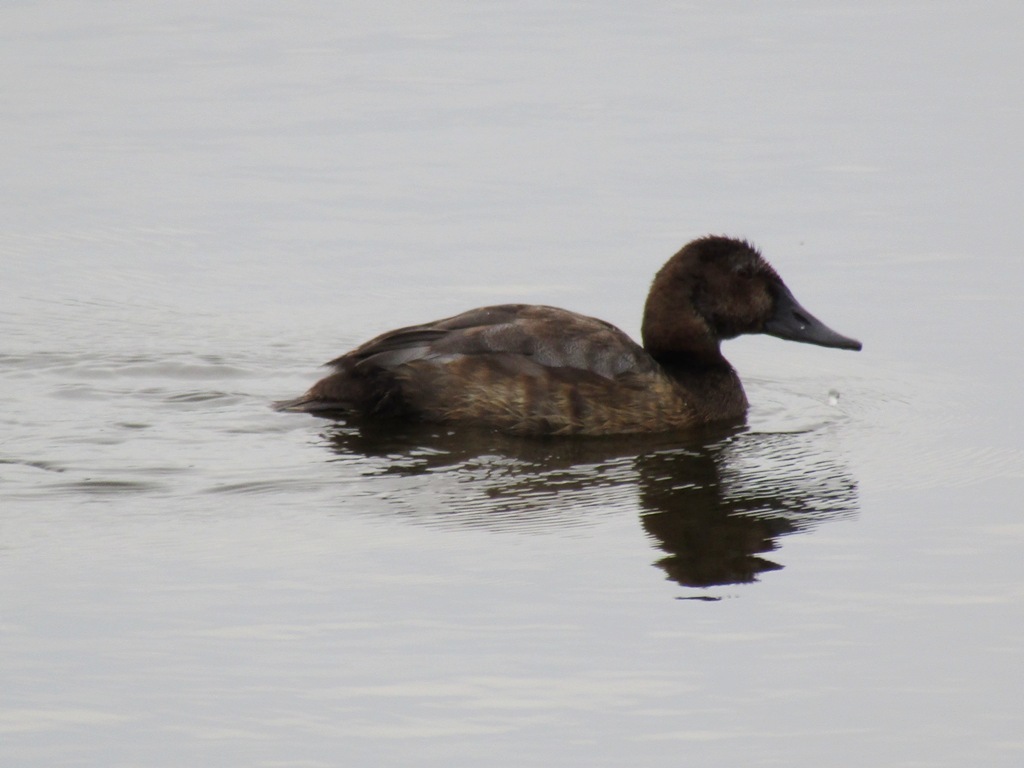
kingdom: Animalia
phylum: Chordata
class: Aves
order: Anseriformes
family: Anatidae
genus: Aythya
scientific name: Aythya ferina
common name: Common pochard
